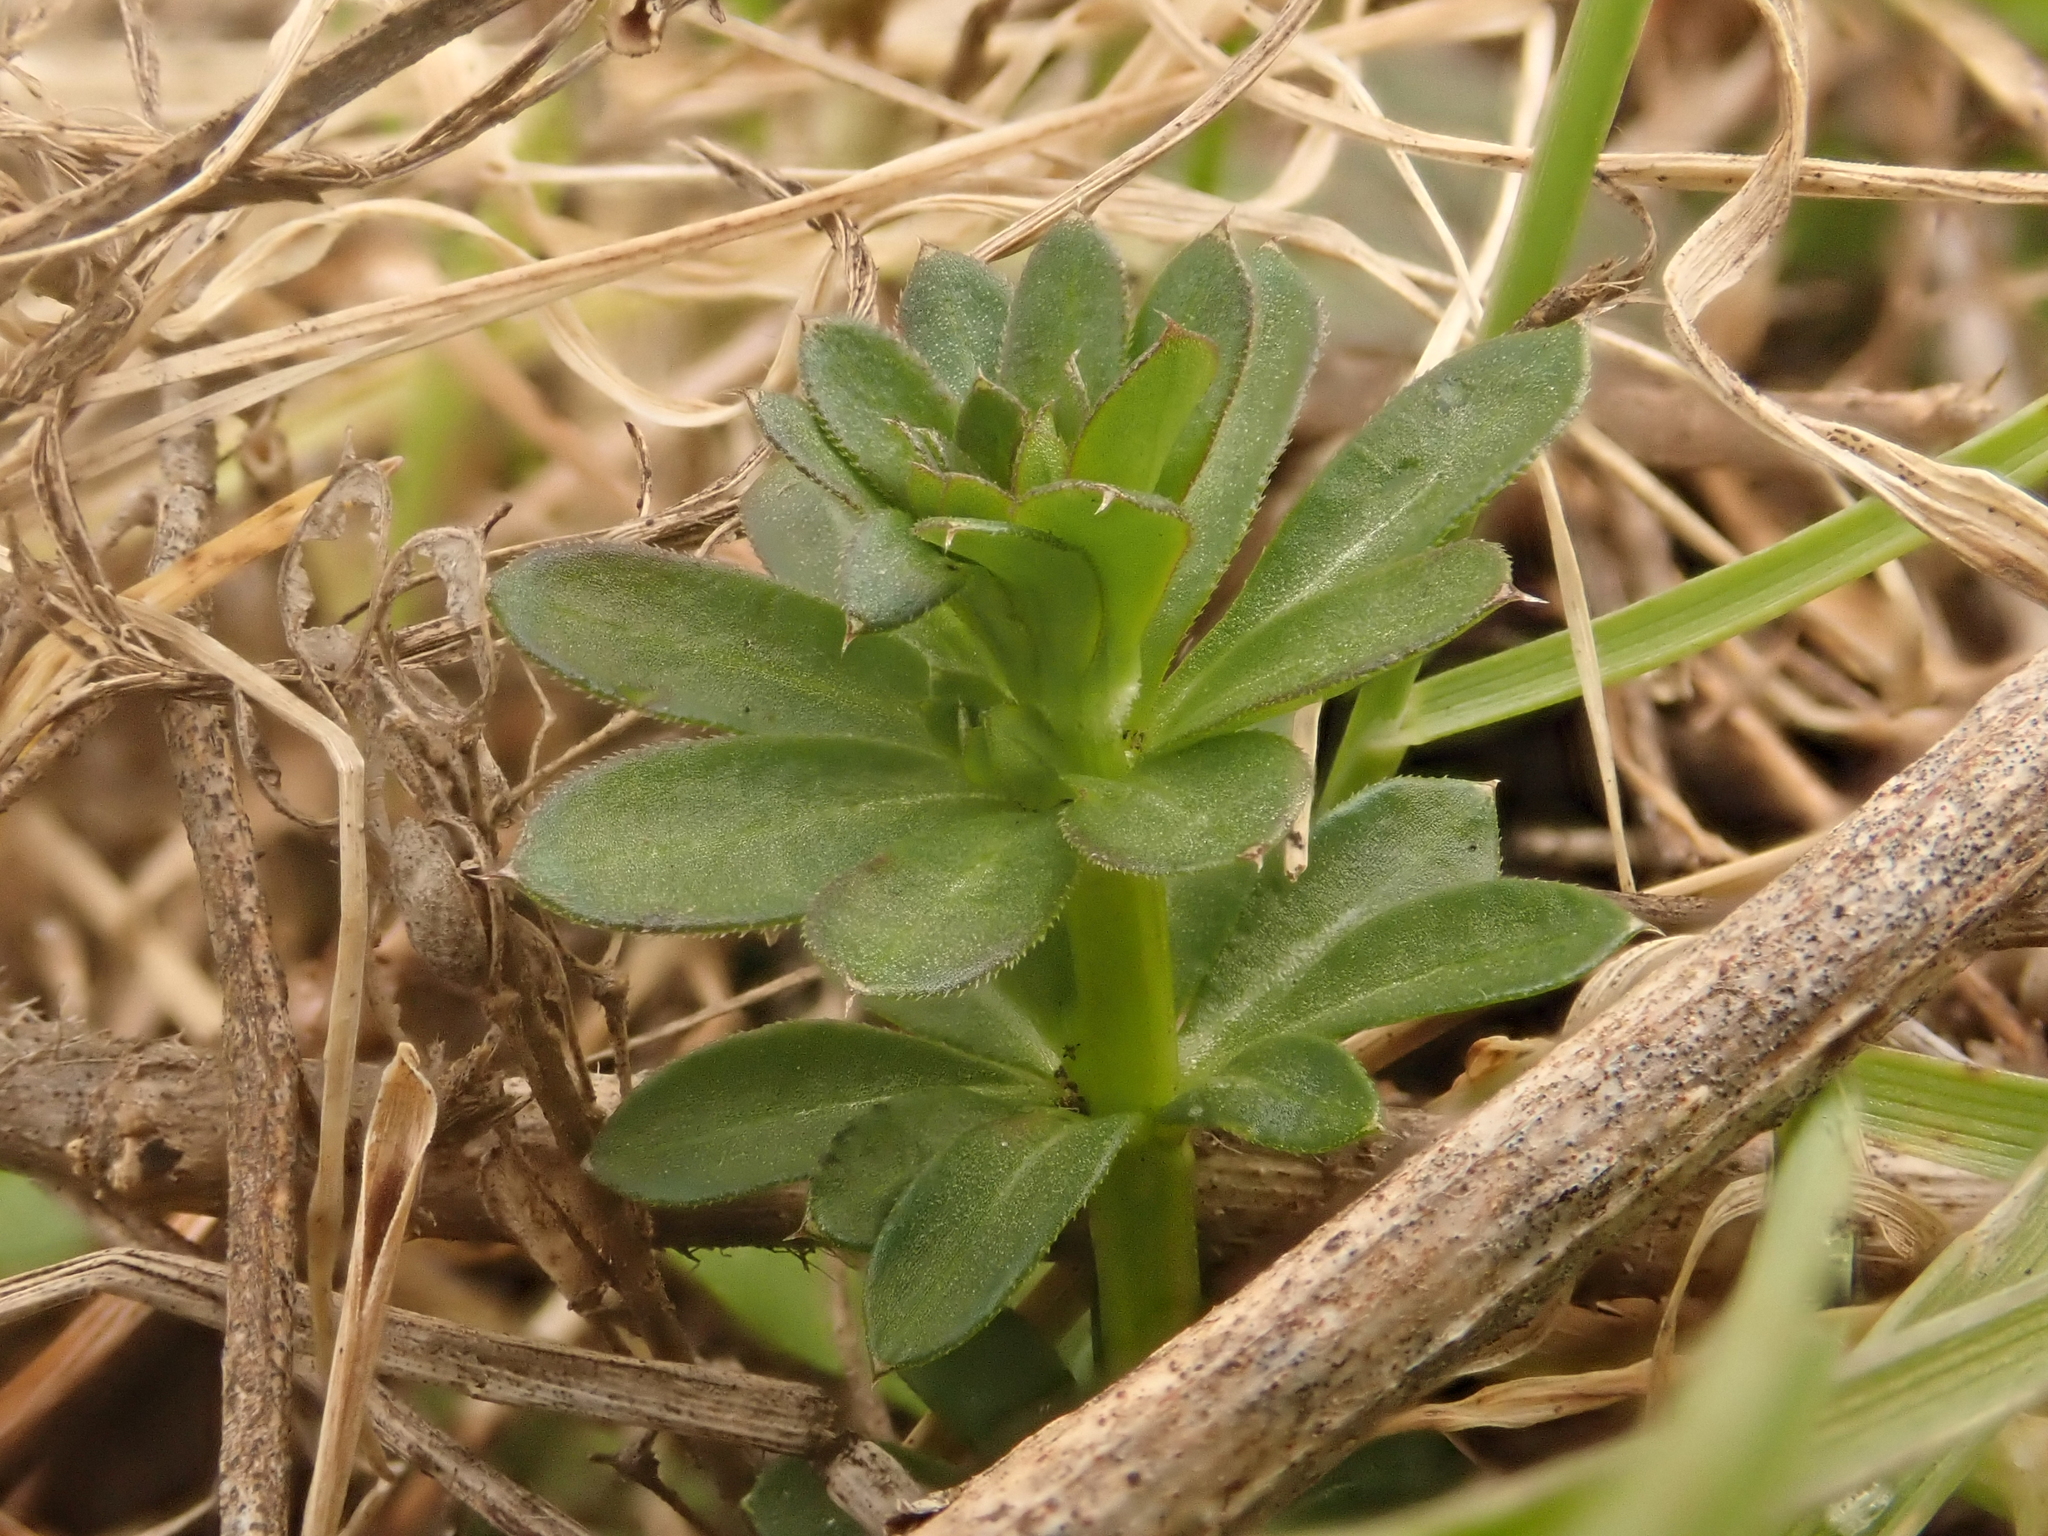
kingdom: Plantae
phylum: Tracheophyta
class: Magnoliopsida
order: Gentianales
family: Rubiaceae
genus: Galium
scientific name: Galium mollugo
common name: Hedge bedstraw
